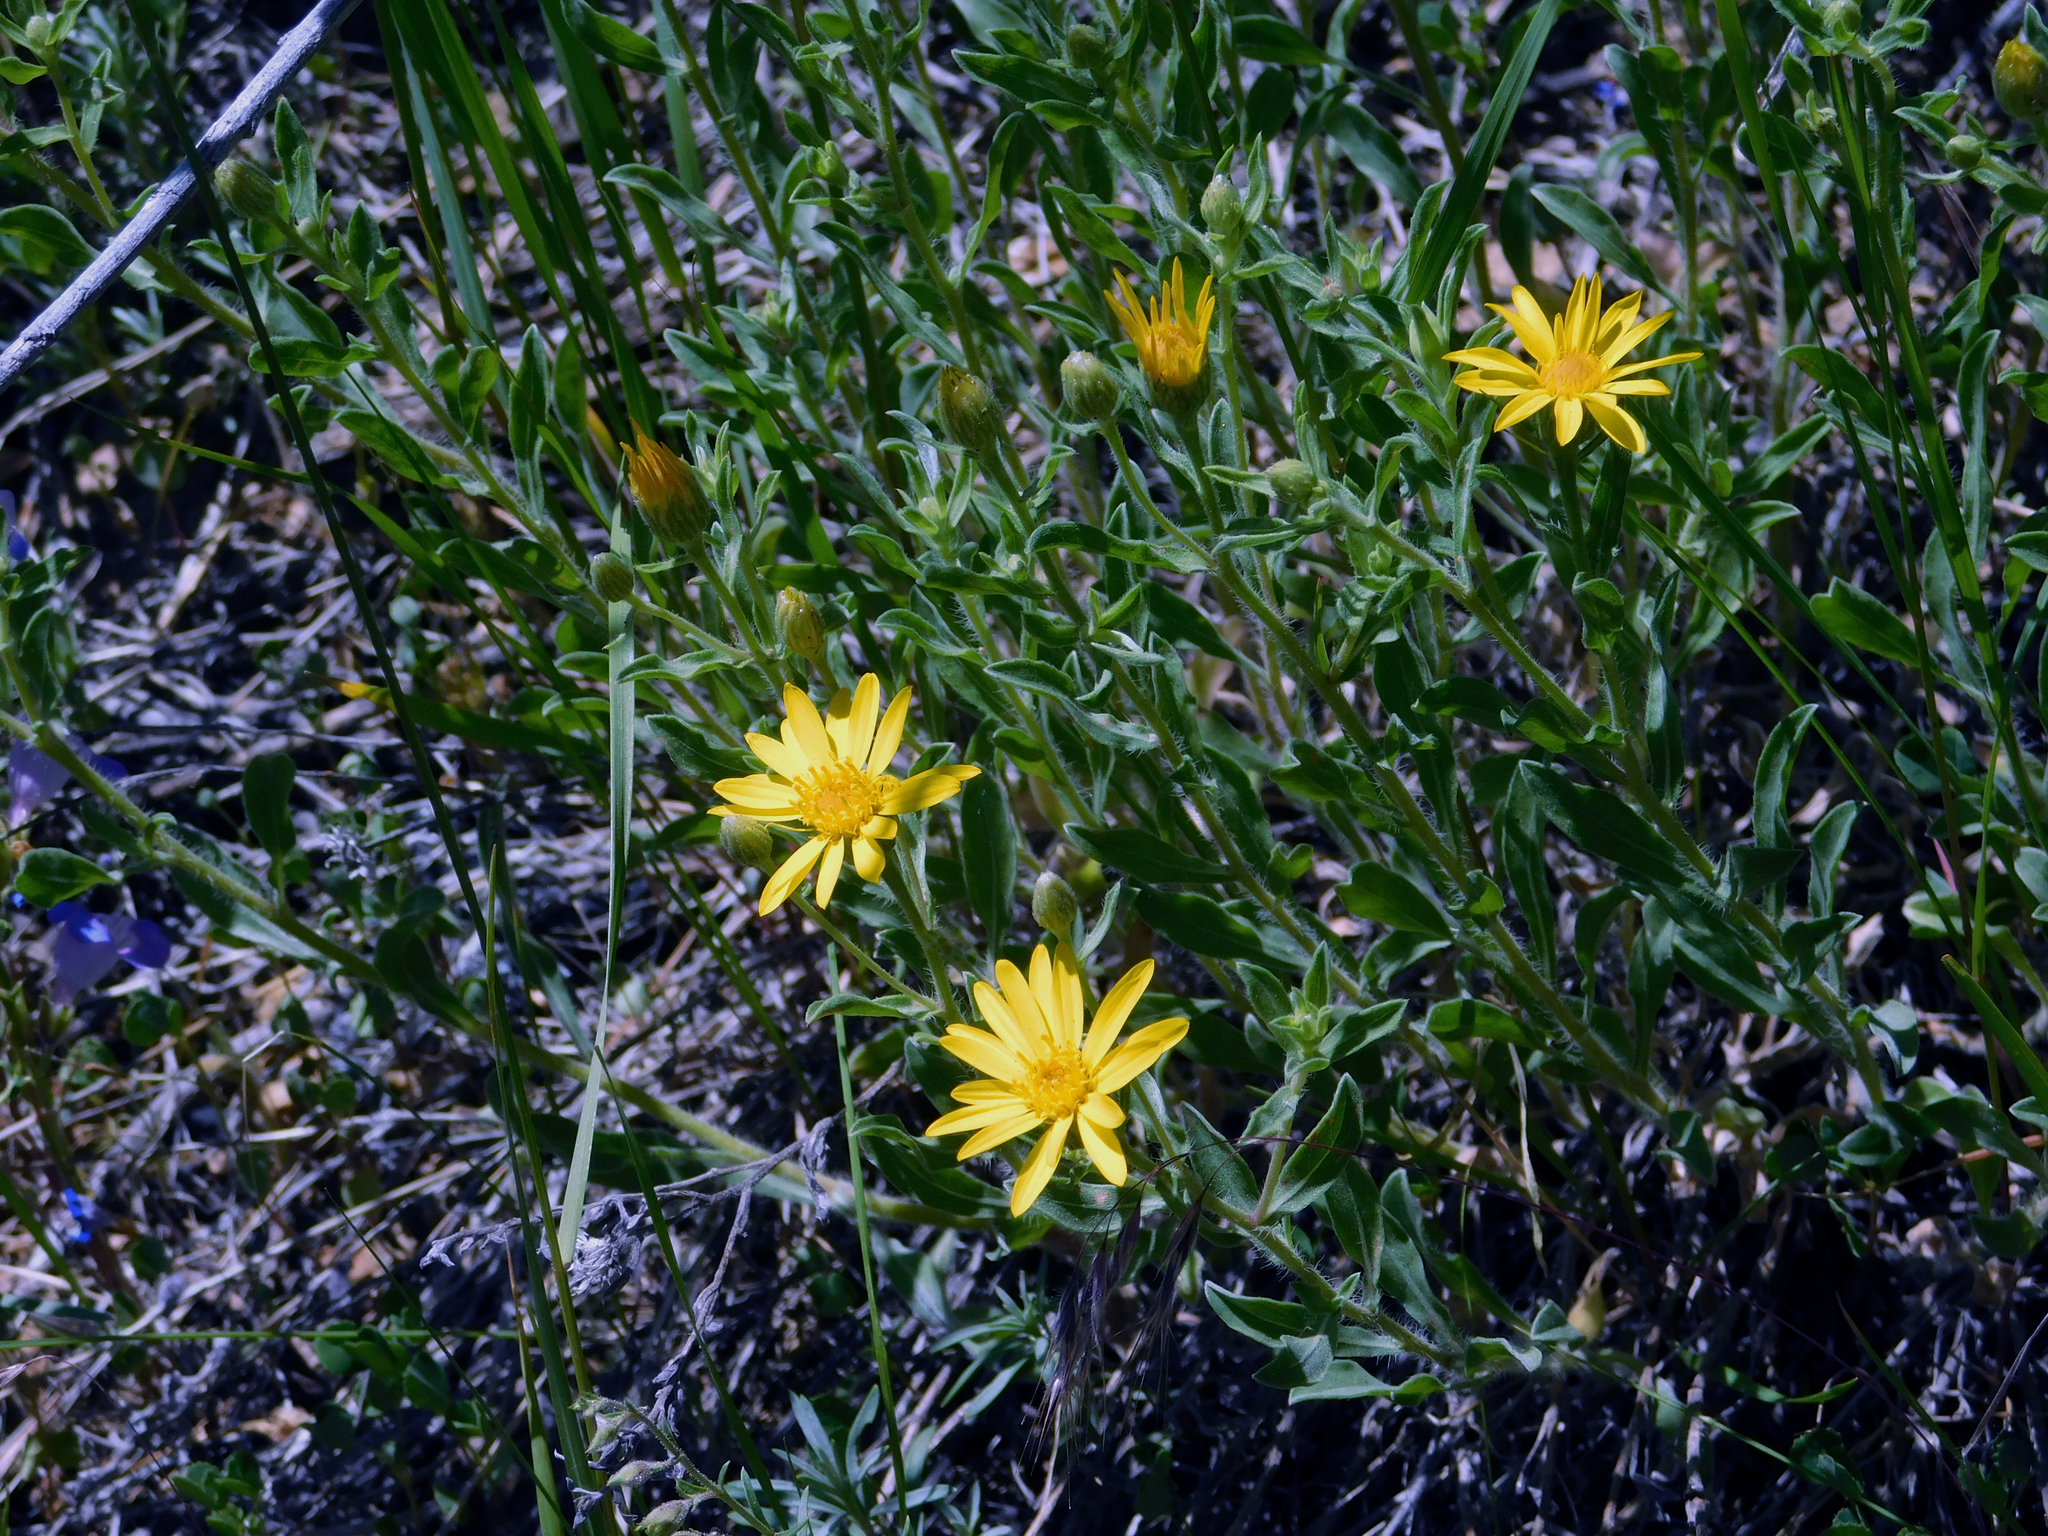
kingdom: Plantae
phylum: Tracheophyta
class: Magnoliopsida
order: Asterales
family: Asteraceae
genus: Heterotheca
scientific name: Heterotheca hirsutissima
